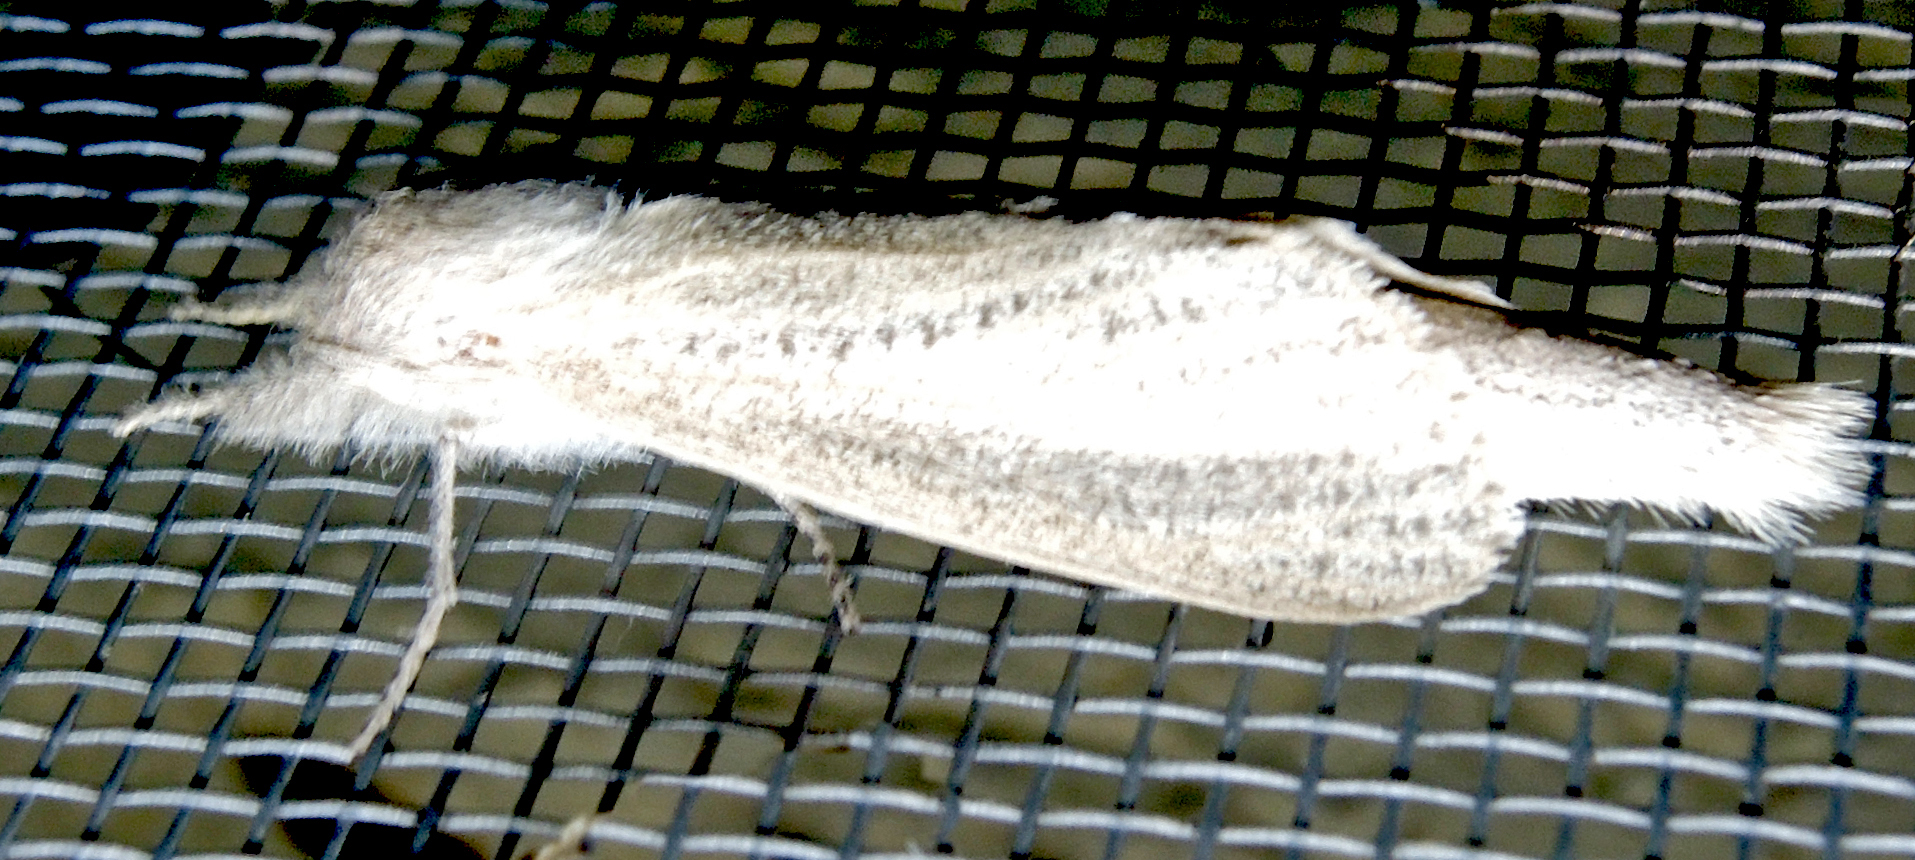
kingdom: Animalia
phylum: Arthropoda
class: Insecta
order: Lepidoptera
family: Cossidae
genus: Phragmataecia
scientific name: Phragmataecia castaneae
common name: Reed leopard
